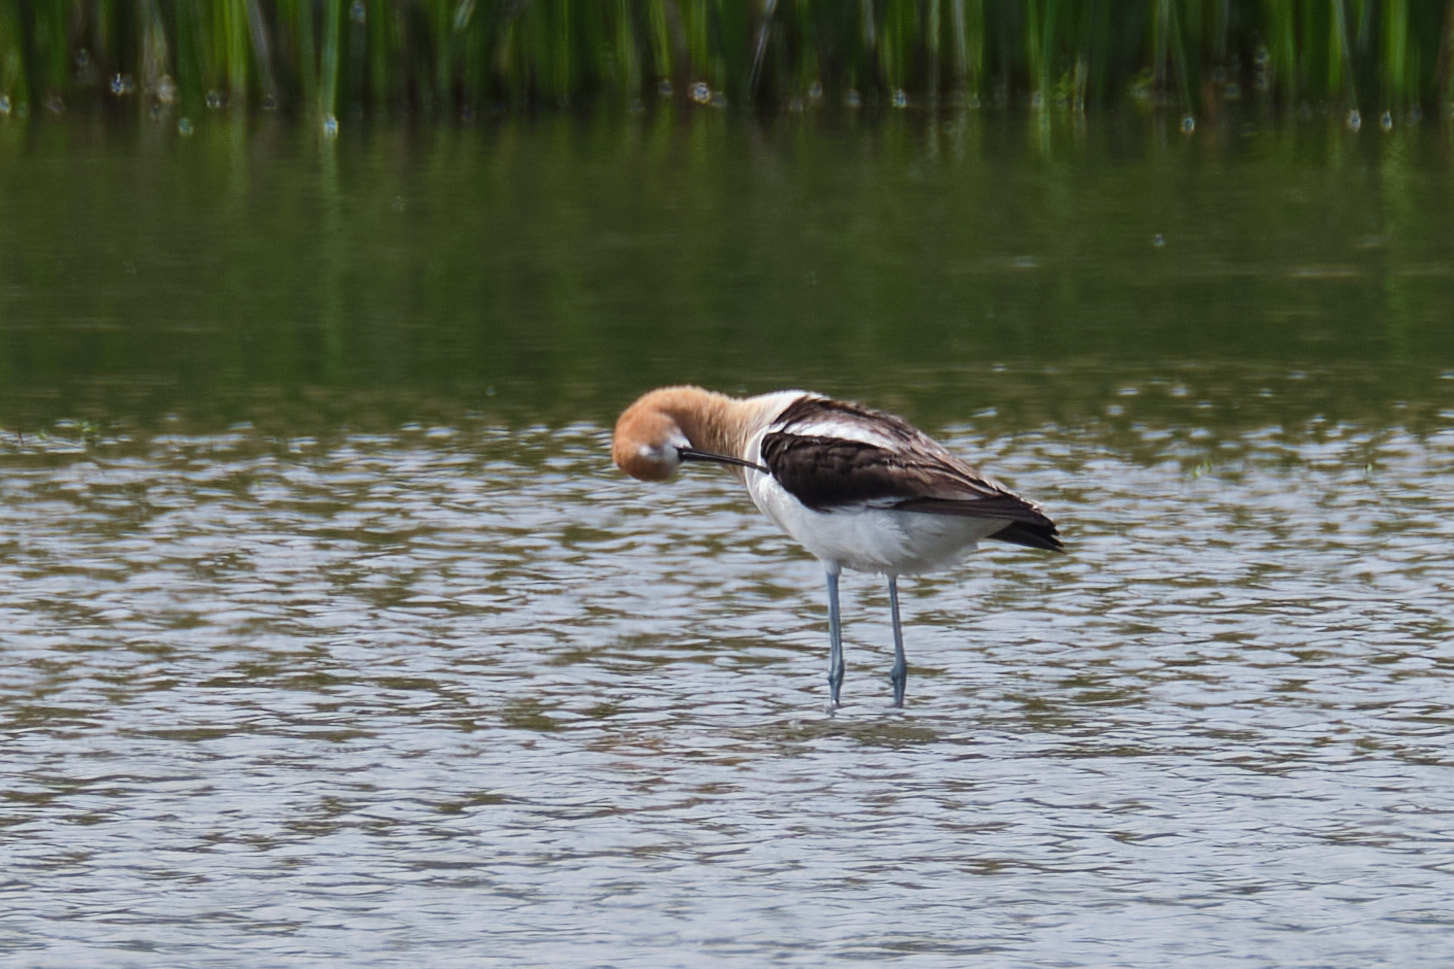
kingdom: Animalia
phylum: Chordata
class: Aves
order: Charadriiformes
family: Recurvirostridae
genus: Recurvirostra
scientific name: Recurvirostra americana
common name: American avocet
